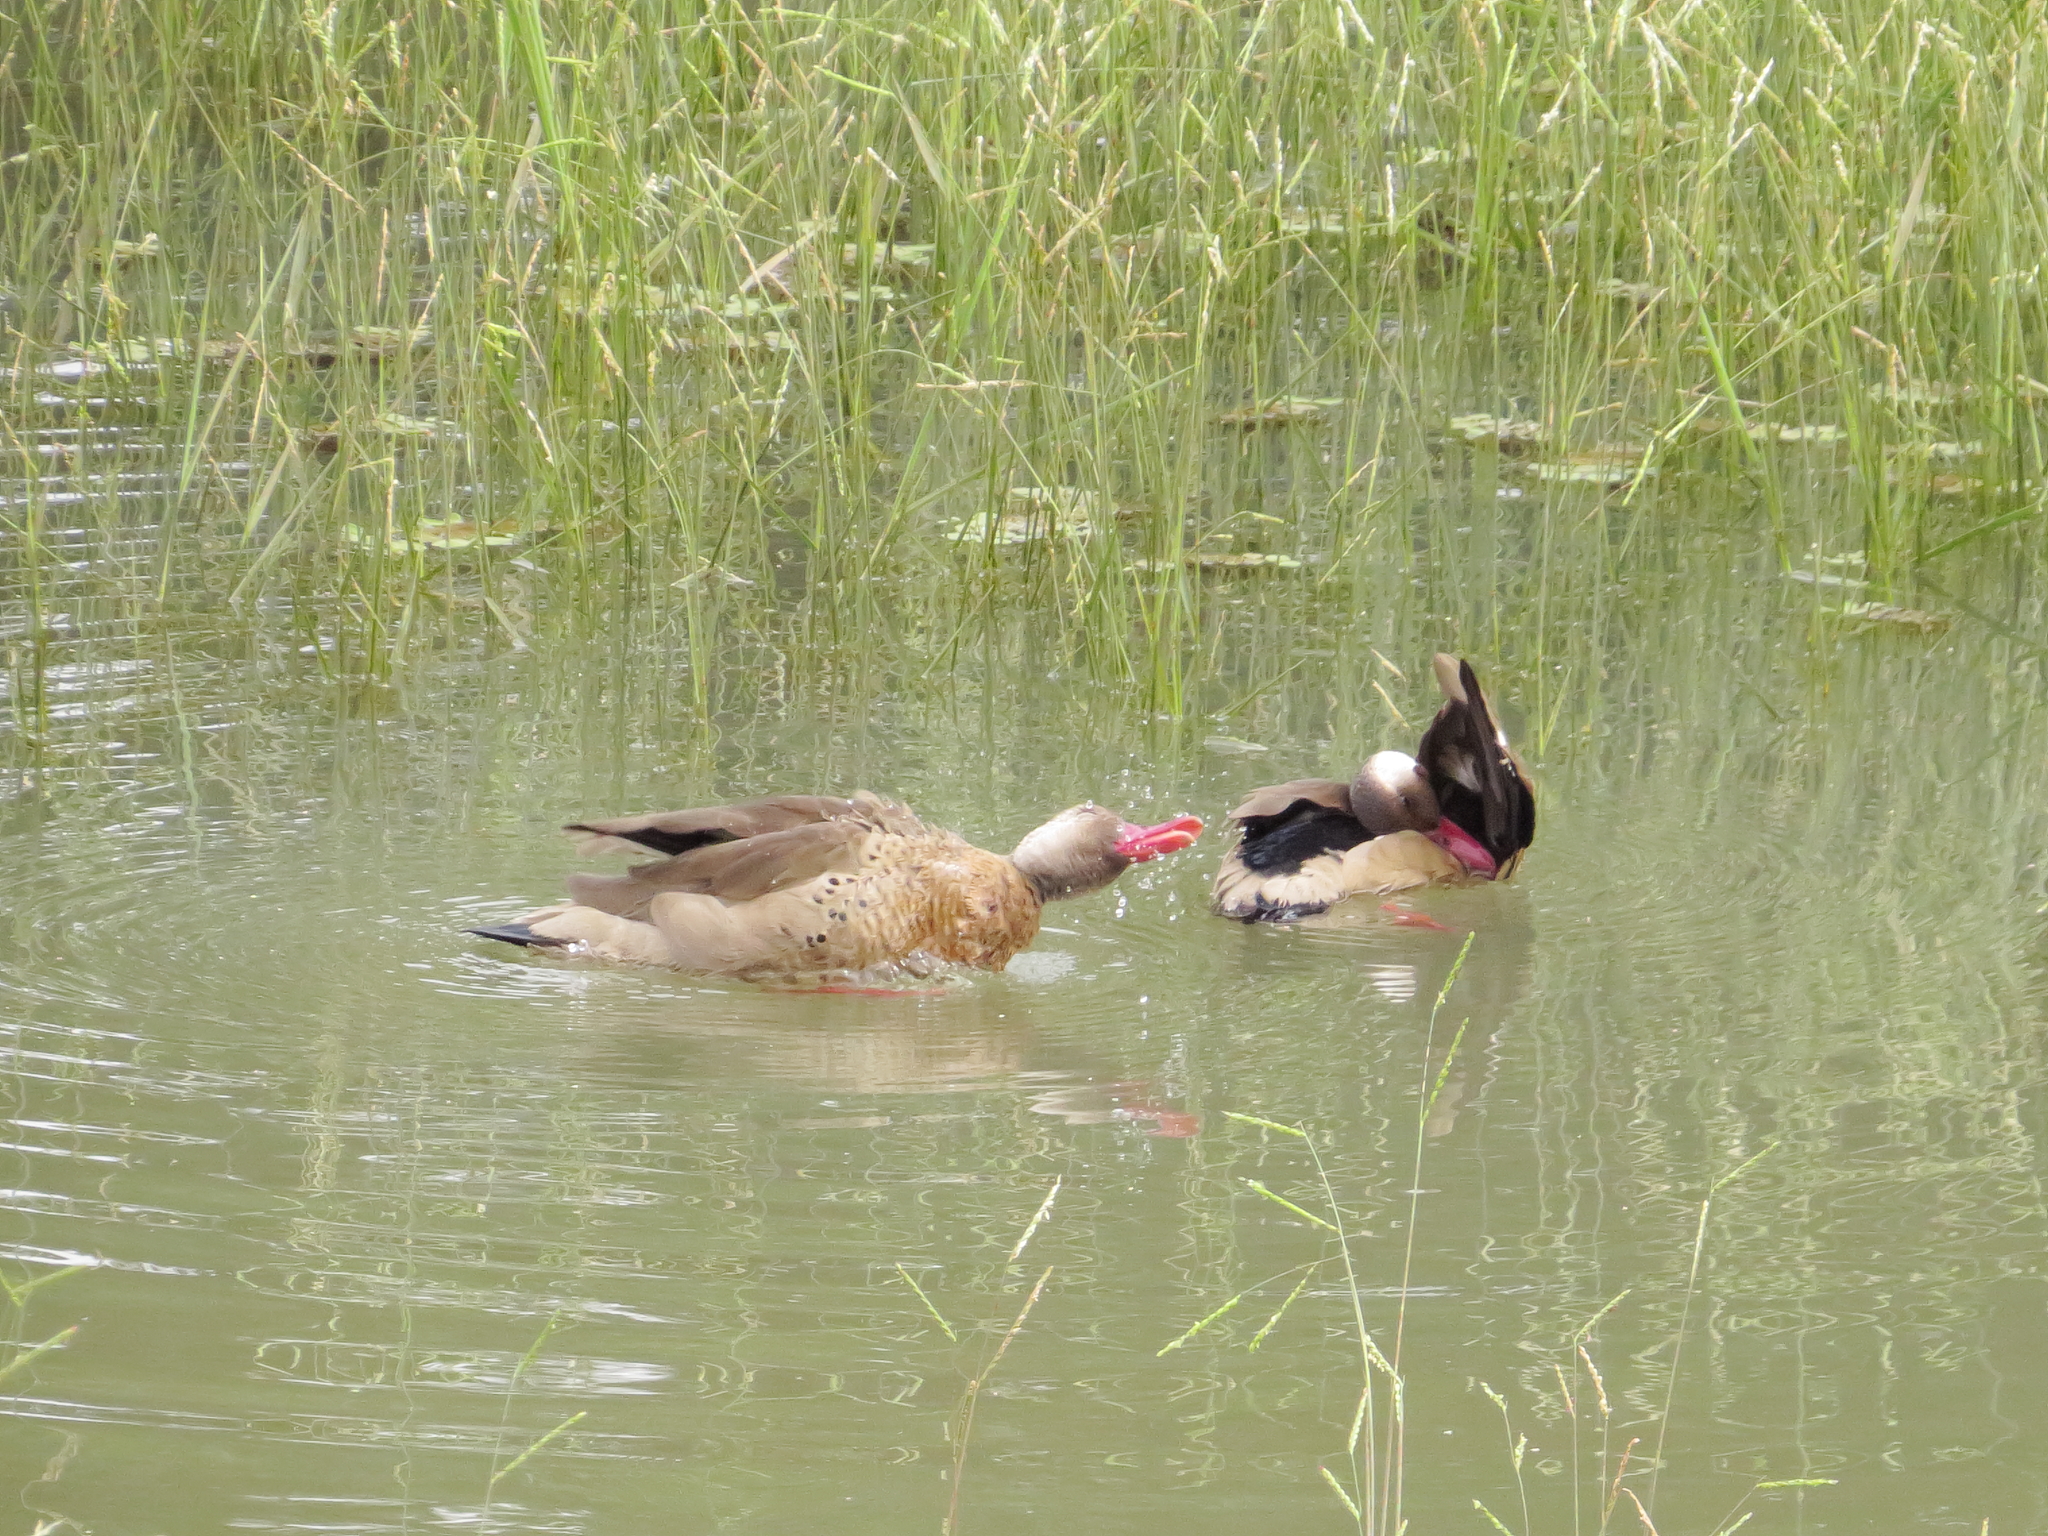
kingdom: Animalia
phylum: Chordata
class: Aves
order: Anseriformes
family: Anatidae
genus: Amazonetta
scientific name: Amazonetta brasiliensis
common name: Brazilian teal
